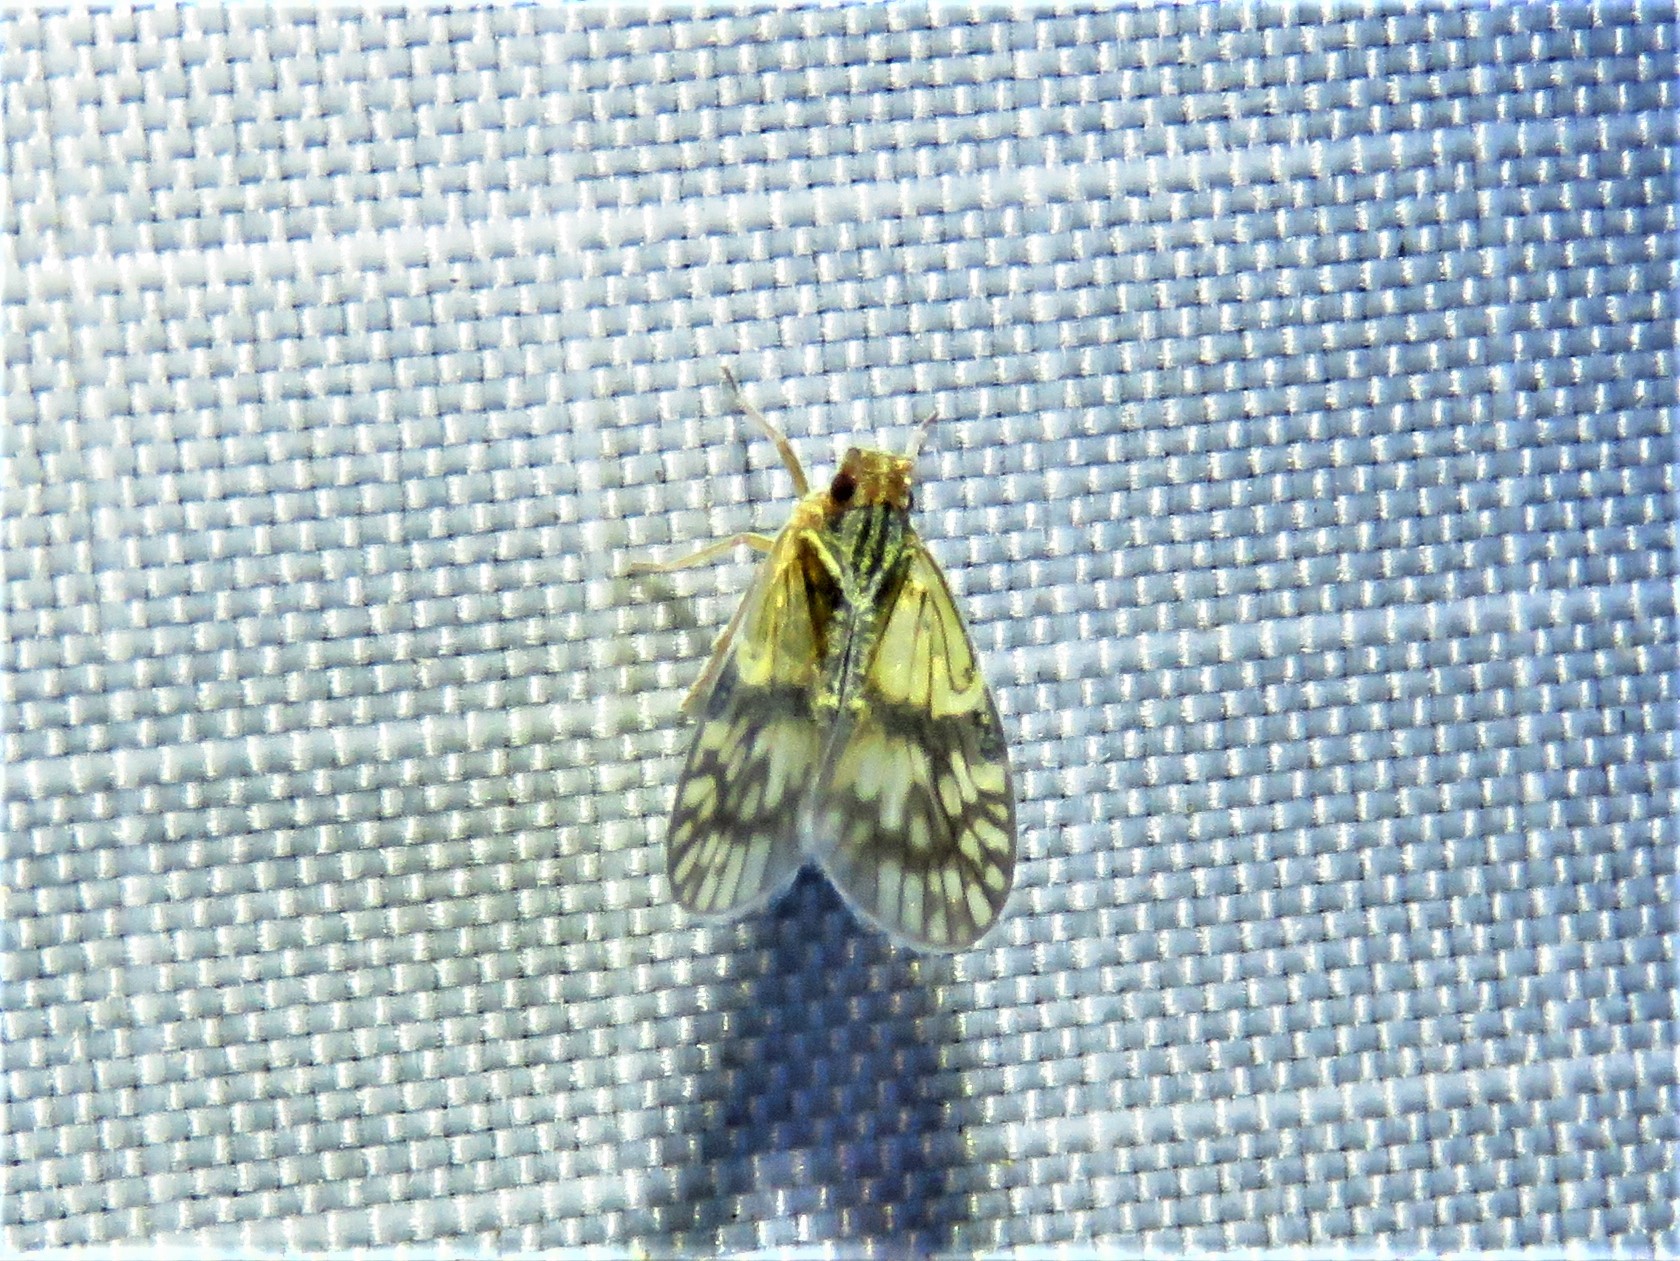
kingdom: Animalia
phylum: Arthropoda
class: Insecta
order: Hemiptera
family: Cixiidae
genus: Bothriocera
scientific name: Bothriocera datuna
